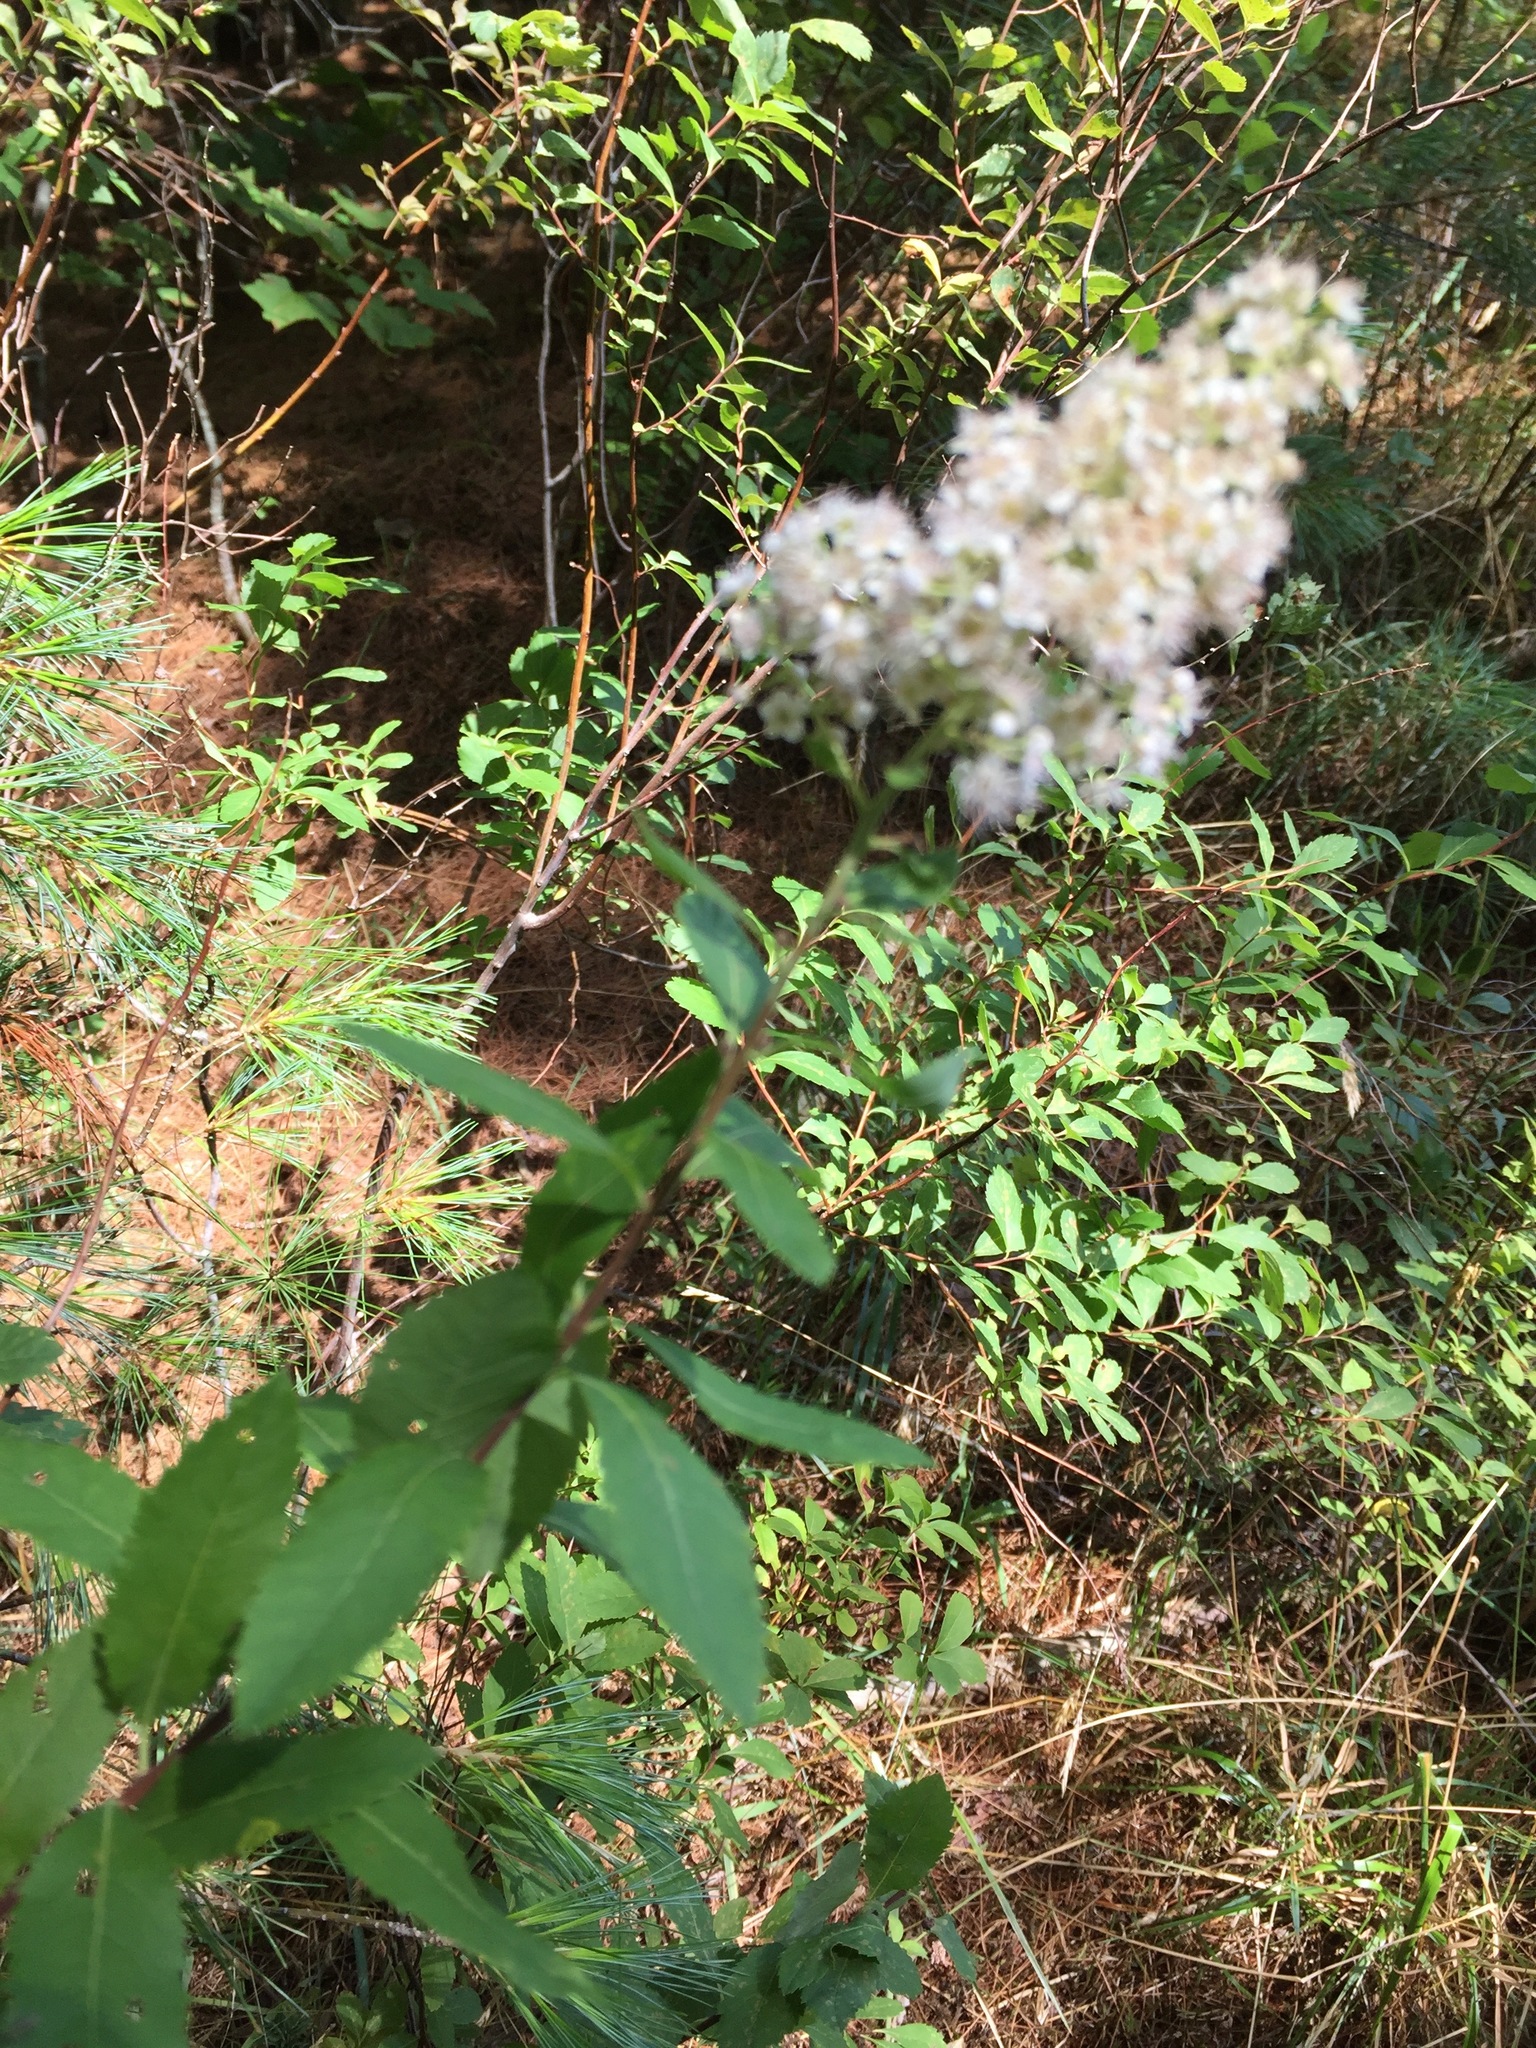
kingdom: Plantae
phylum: Tracheophyta
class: Magnoliopsida
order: Rosales
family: Rosaceae
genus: Spiraea
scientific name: Spiraea alba
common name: Pale bridewort
